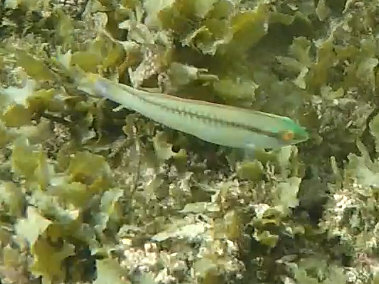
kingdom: Animalia
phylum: Chordata
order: Perciformes
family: Labridae
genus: Halichoeres
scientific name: Halichoeres scapularis
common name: Brownbanded wrasse
